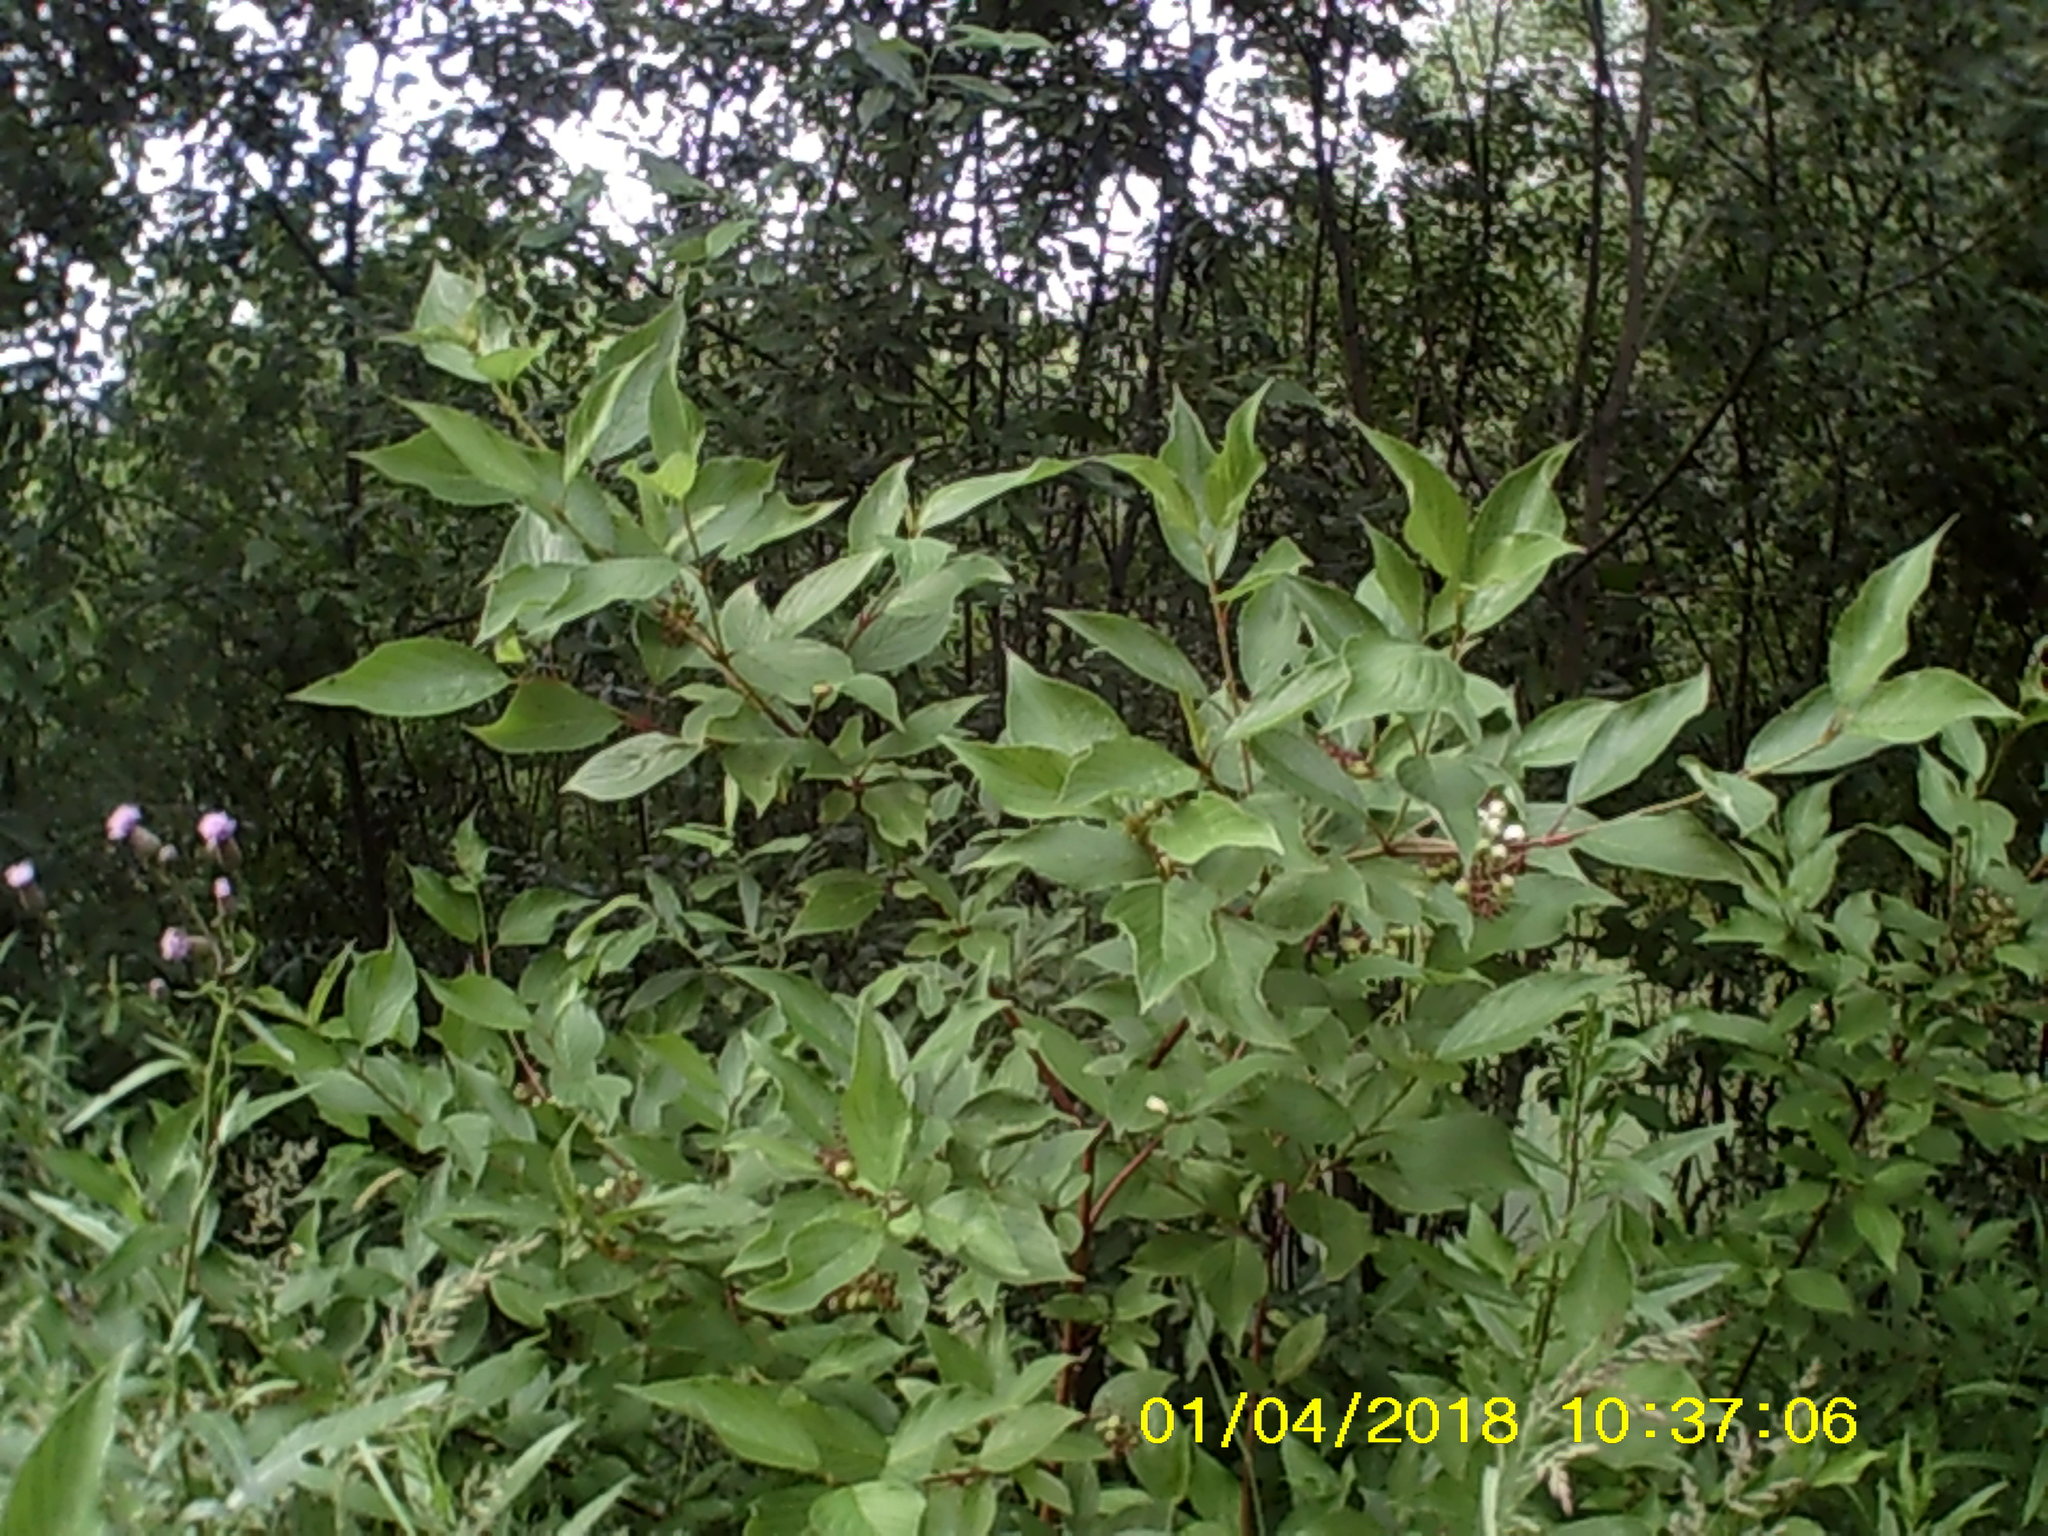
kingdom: Plantae
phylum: Tracheophyta
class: Magnoliopsida
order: Cornales
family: Cornaceae
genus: Cornus
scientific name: Cornus alba
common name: White dogwood
